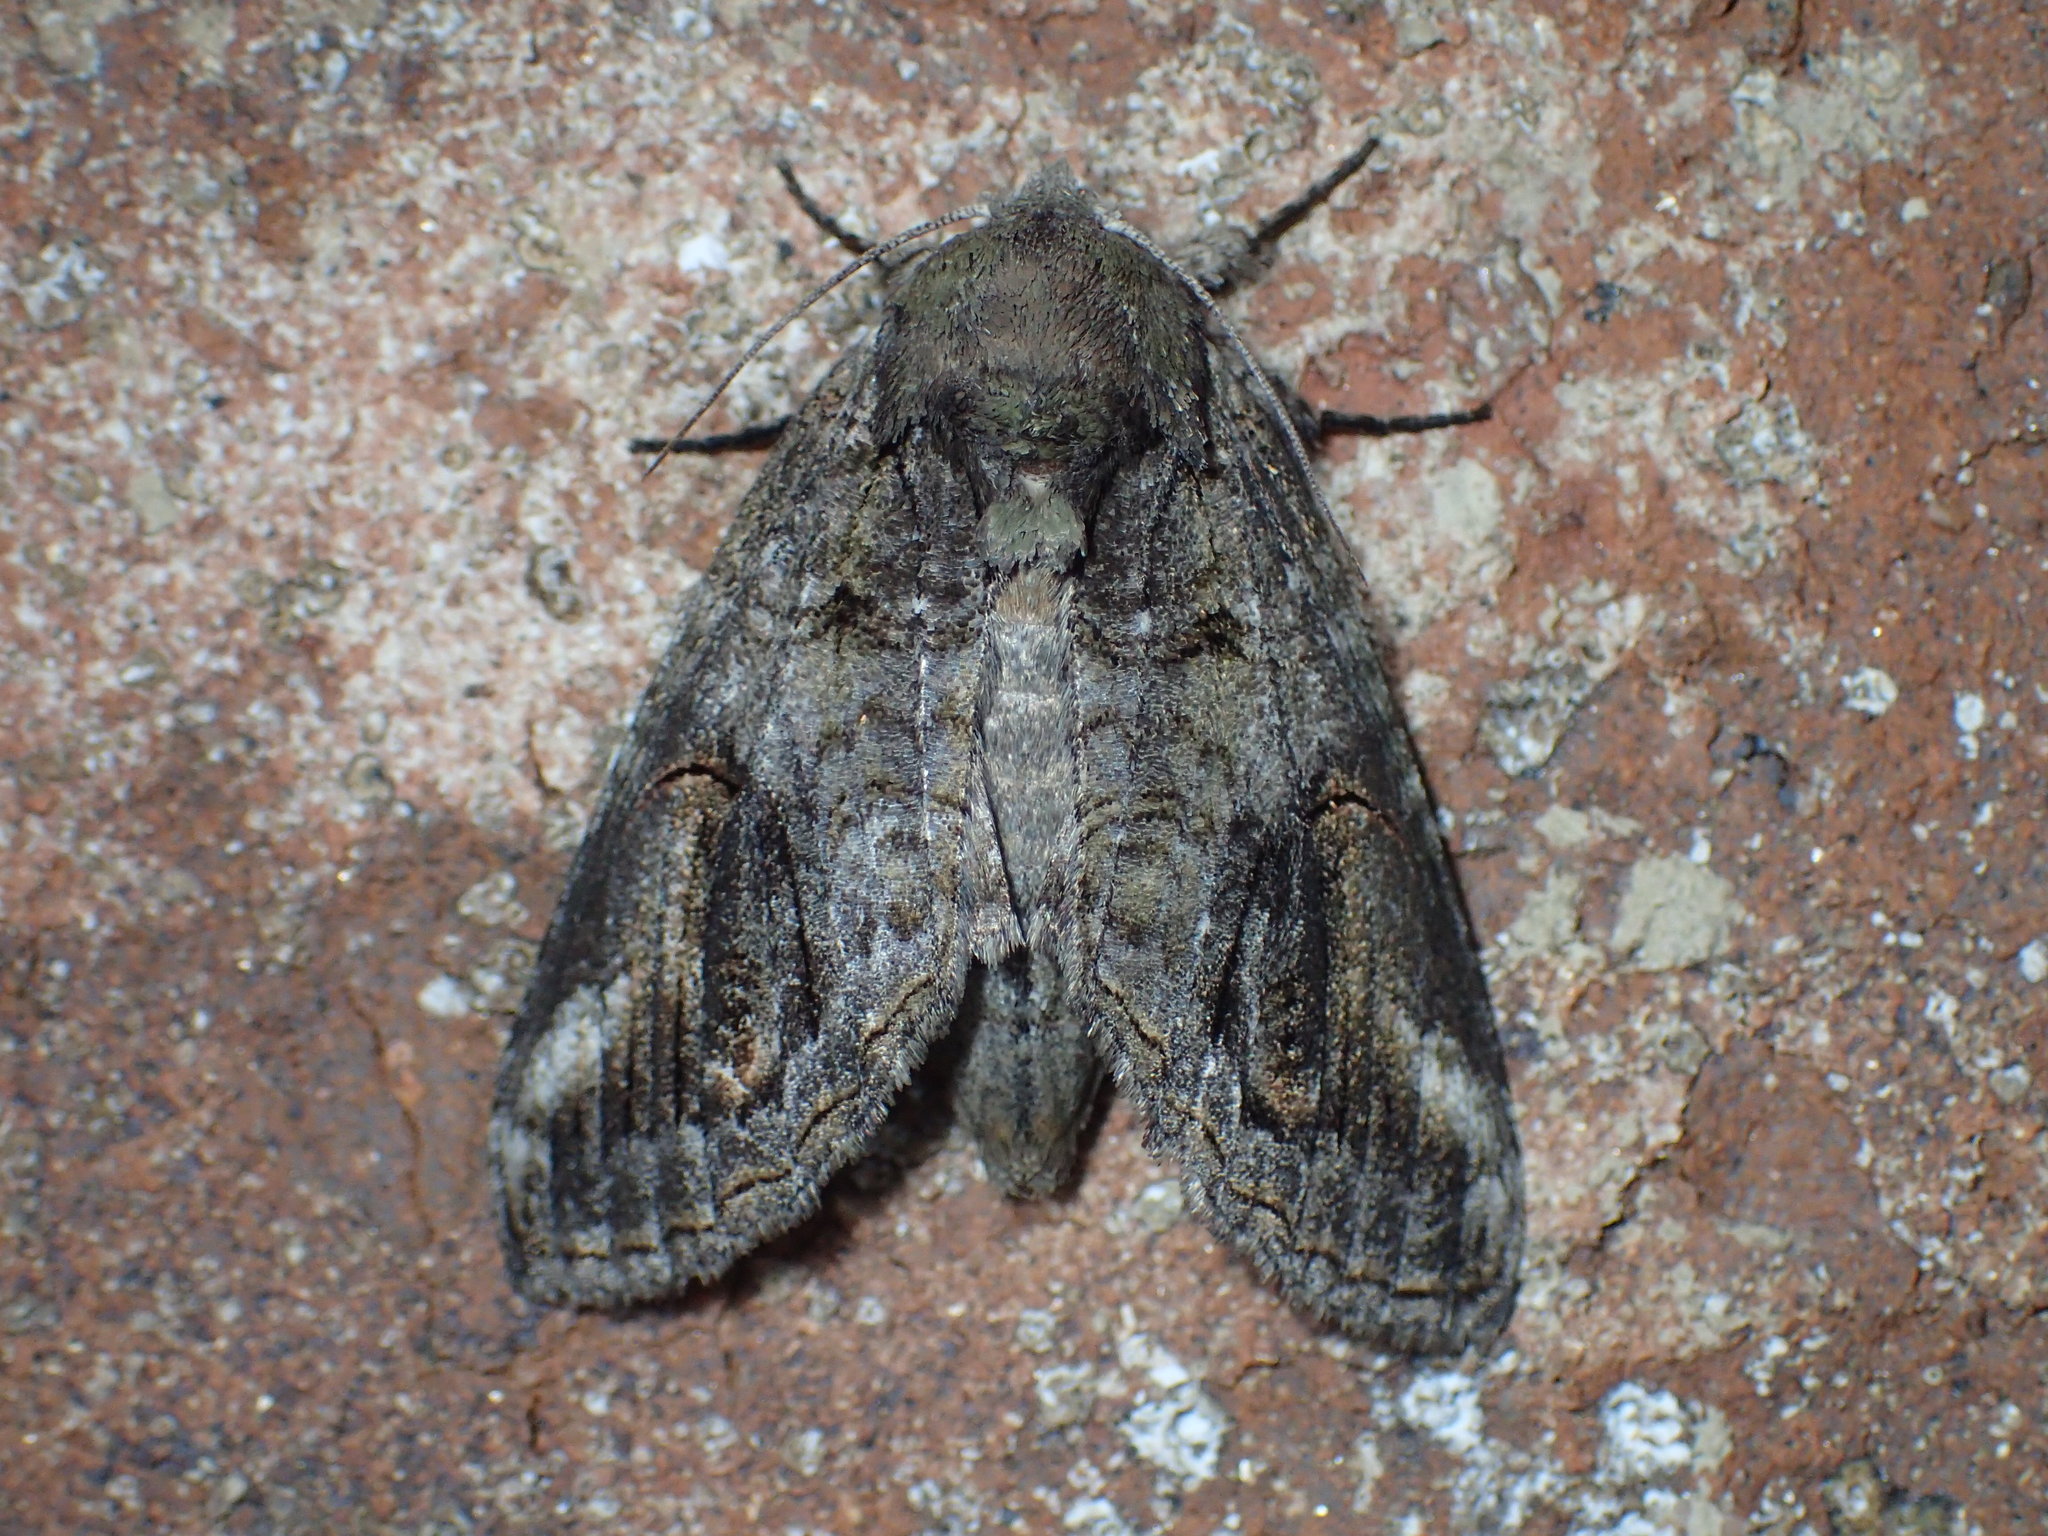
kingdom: Animalia
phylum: Arthropoda
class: Insecta
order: Lepidoptera
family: Notodontidae
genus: Heterocampa
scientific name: Heterocampa obliqua
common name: Oblique heterocampa
